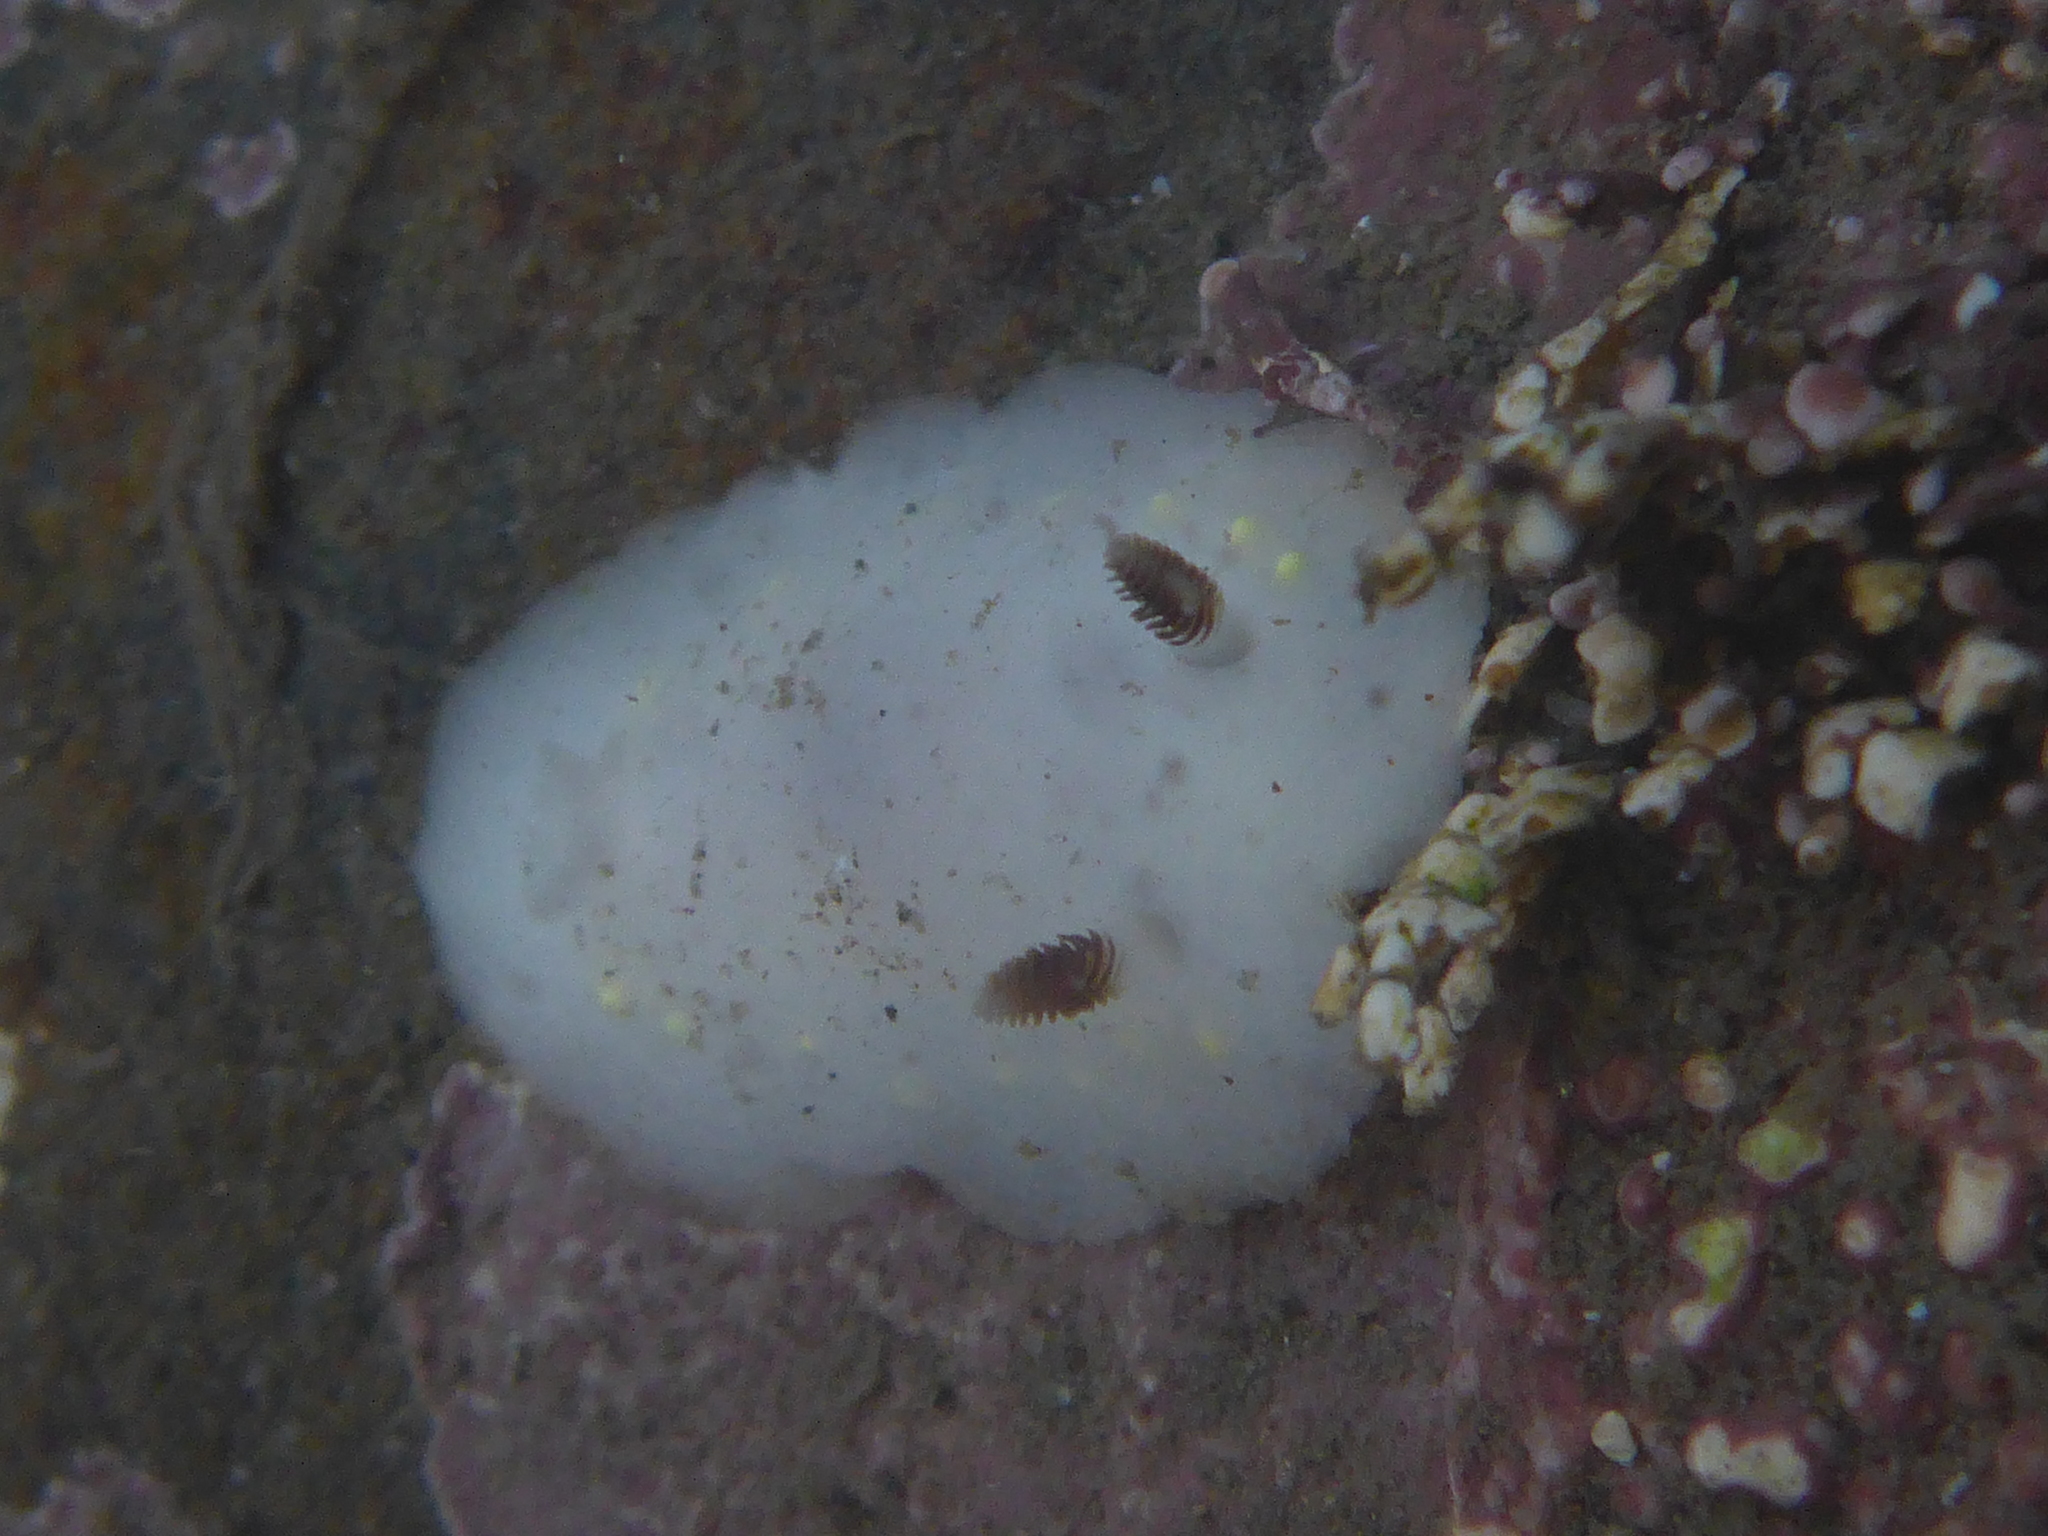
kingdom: Animalia
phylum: Mollusca
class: Gastropoda
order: Nudibranchia
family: Cadlinidae
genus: Cadlina
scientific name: Cadlina flavomaculata
